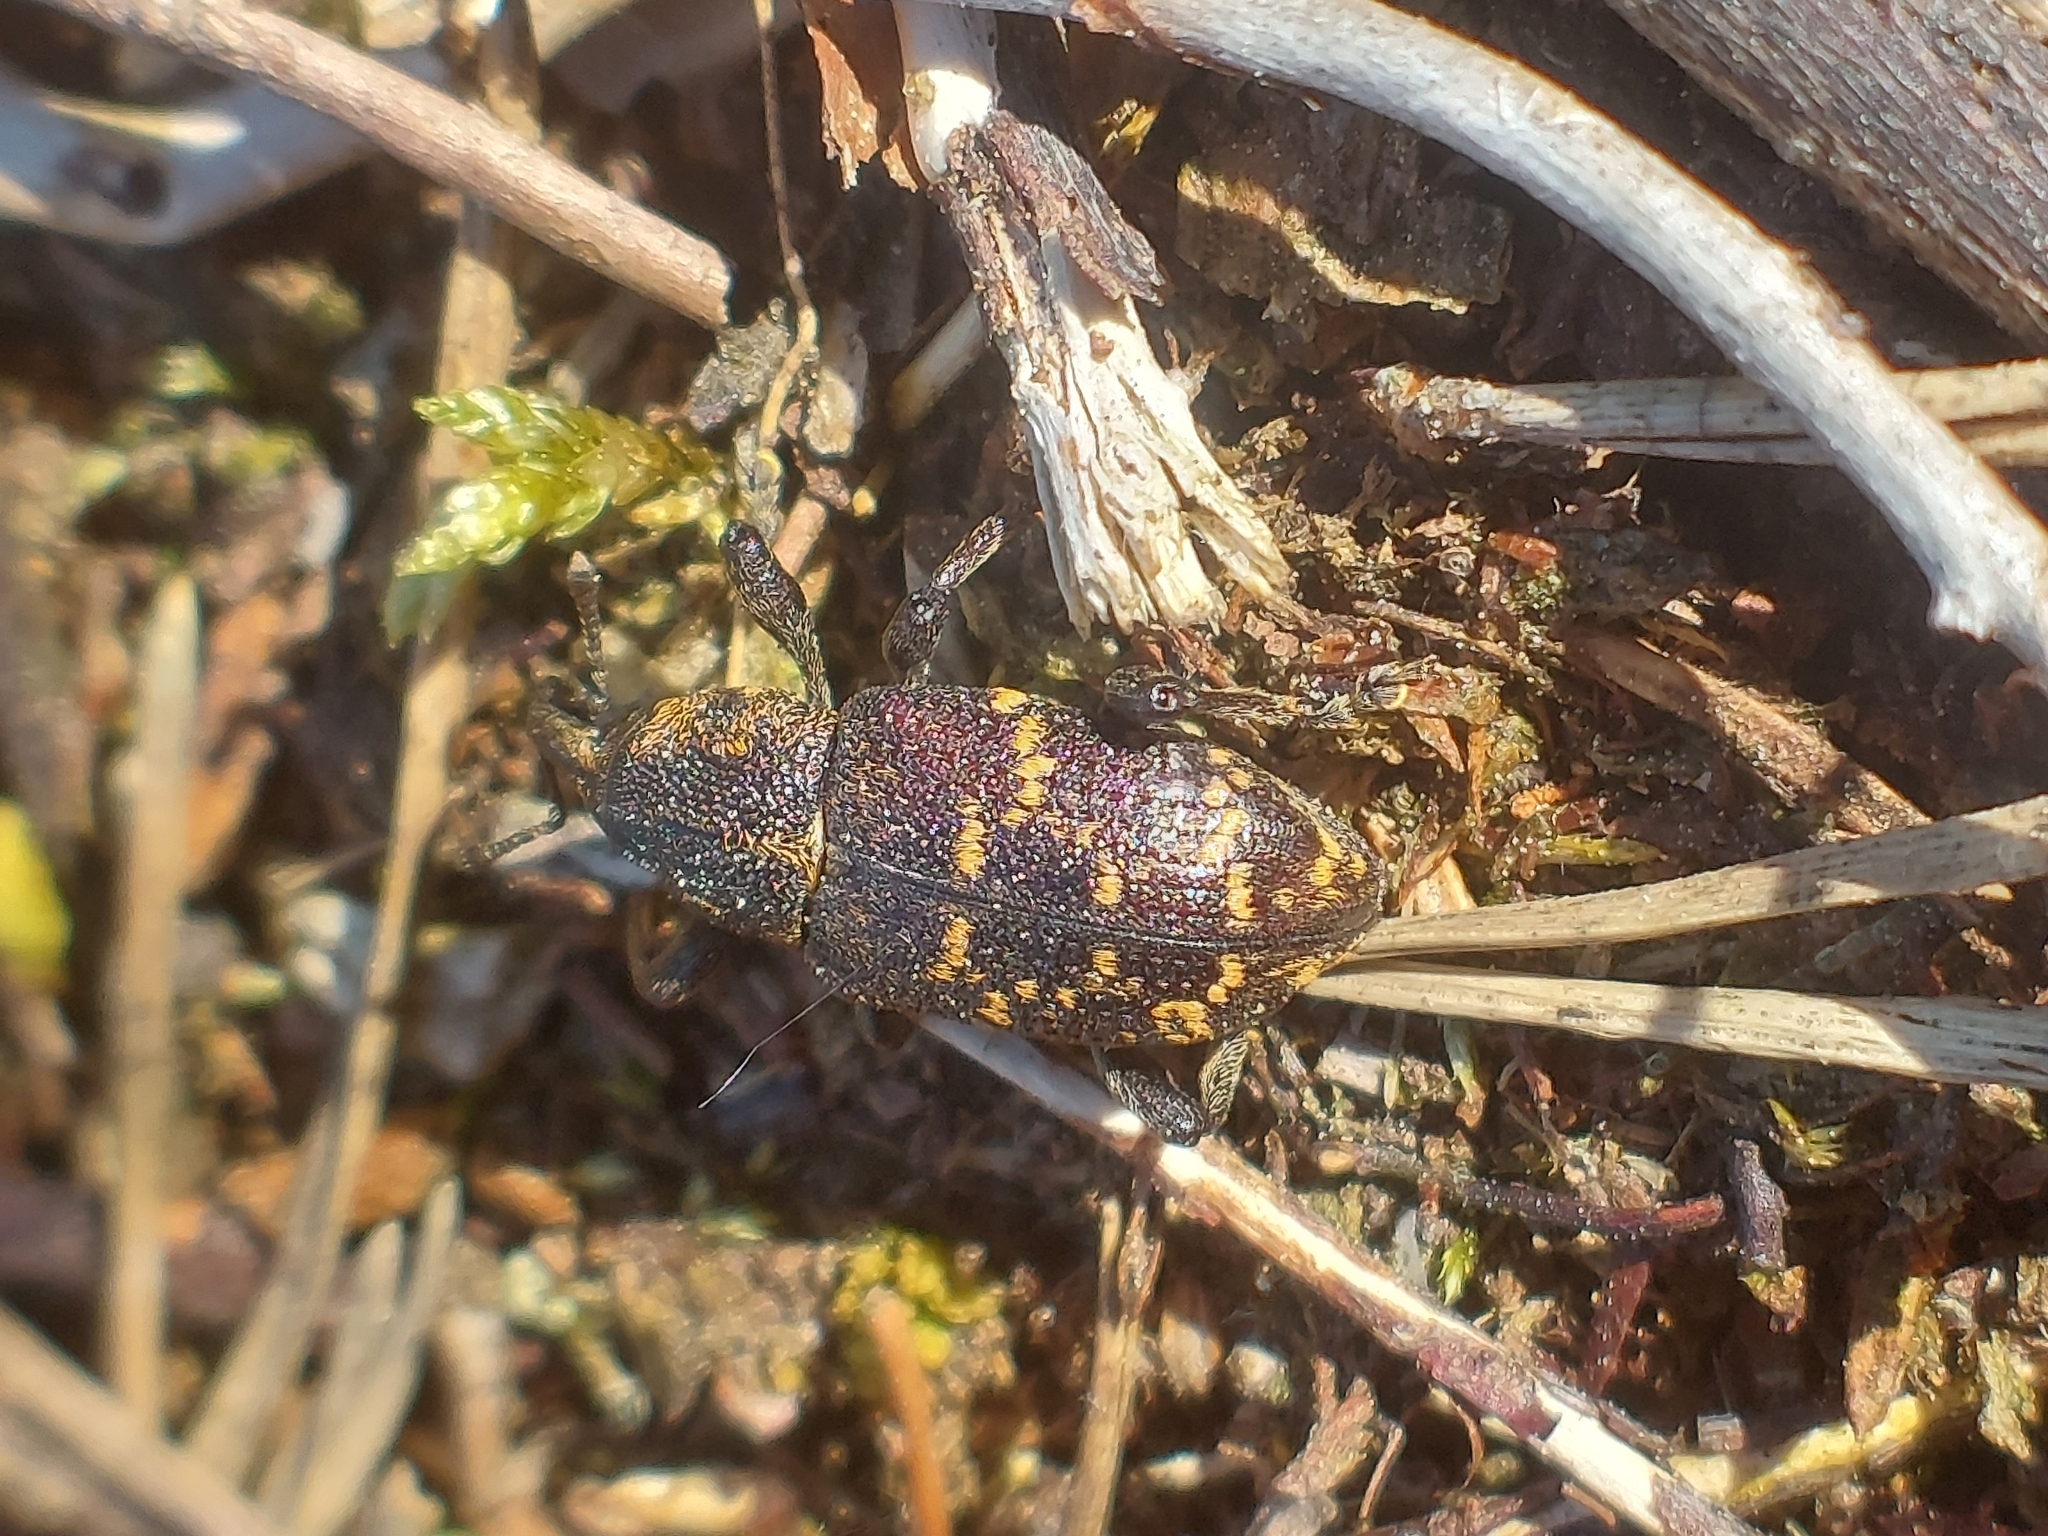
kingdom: Animalia
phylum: Arthropoda
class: Insecta
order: Coleoptera
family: Curculionidae
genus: Hylobius
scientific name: Hylobius abietis
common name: Large pine weevil
